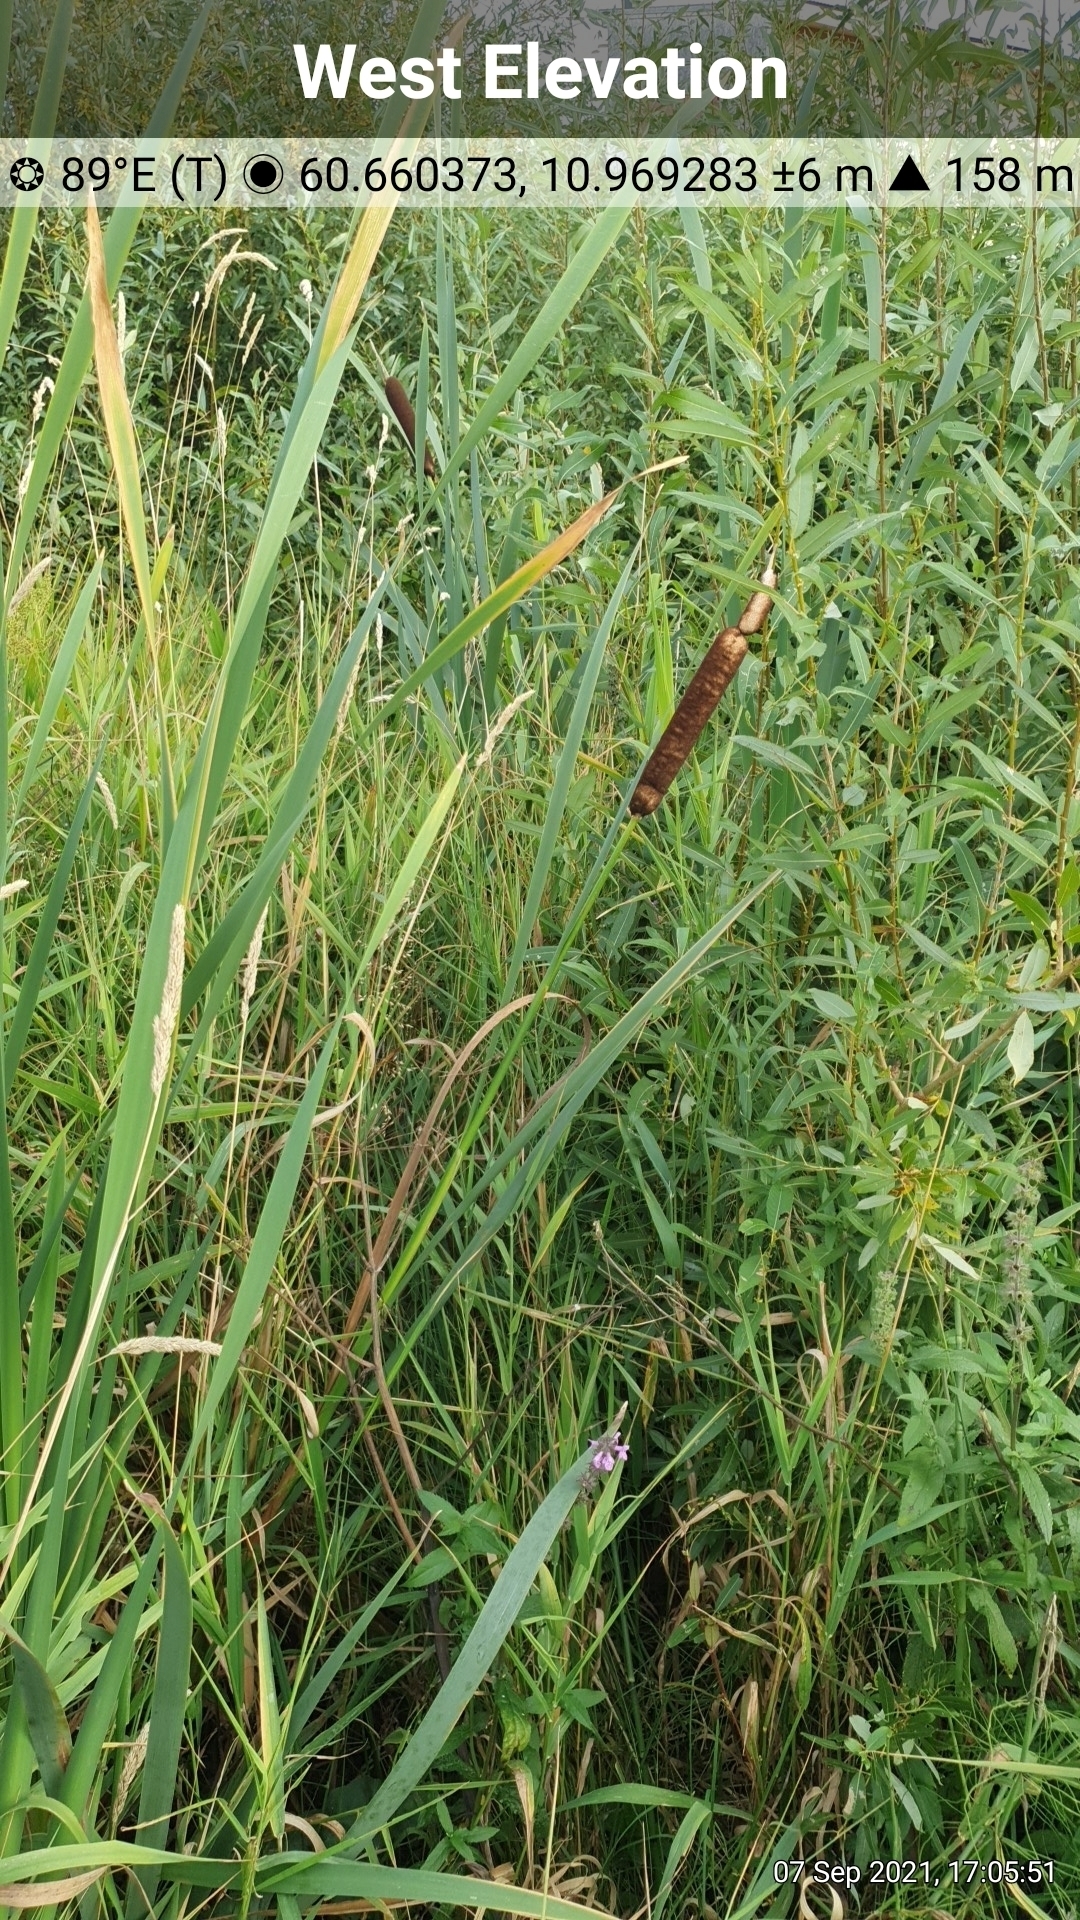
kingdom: Plantae
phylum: Tracheophyta
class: Liliopsida
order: Poales
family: Typhaceae
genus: Typha
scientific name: Typha latifolia
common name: Broadleaf cattail
